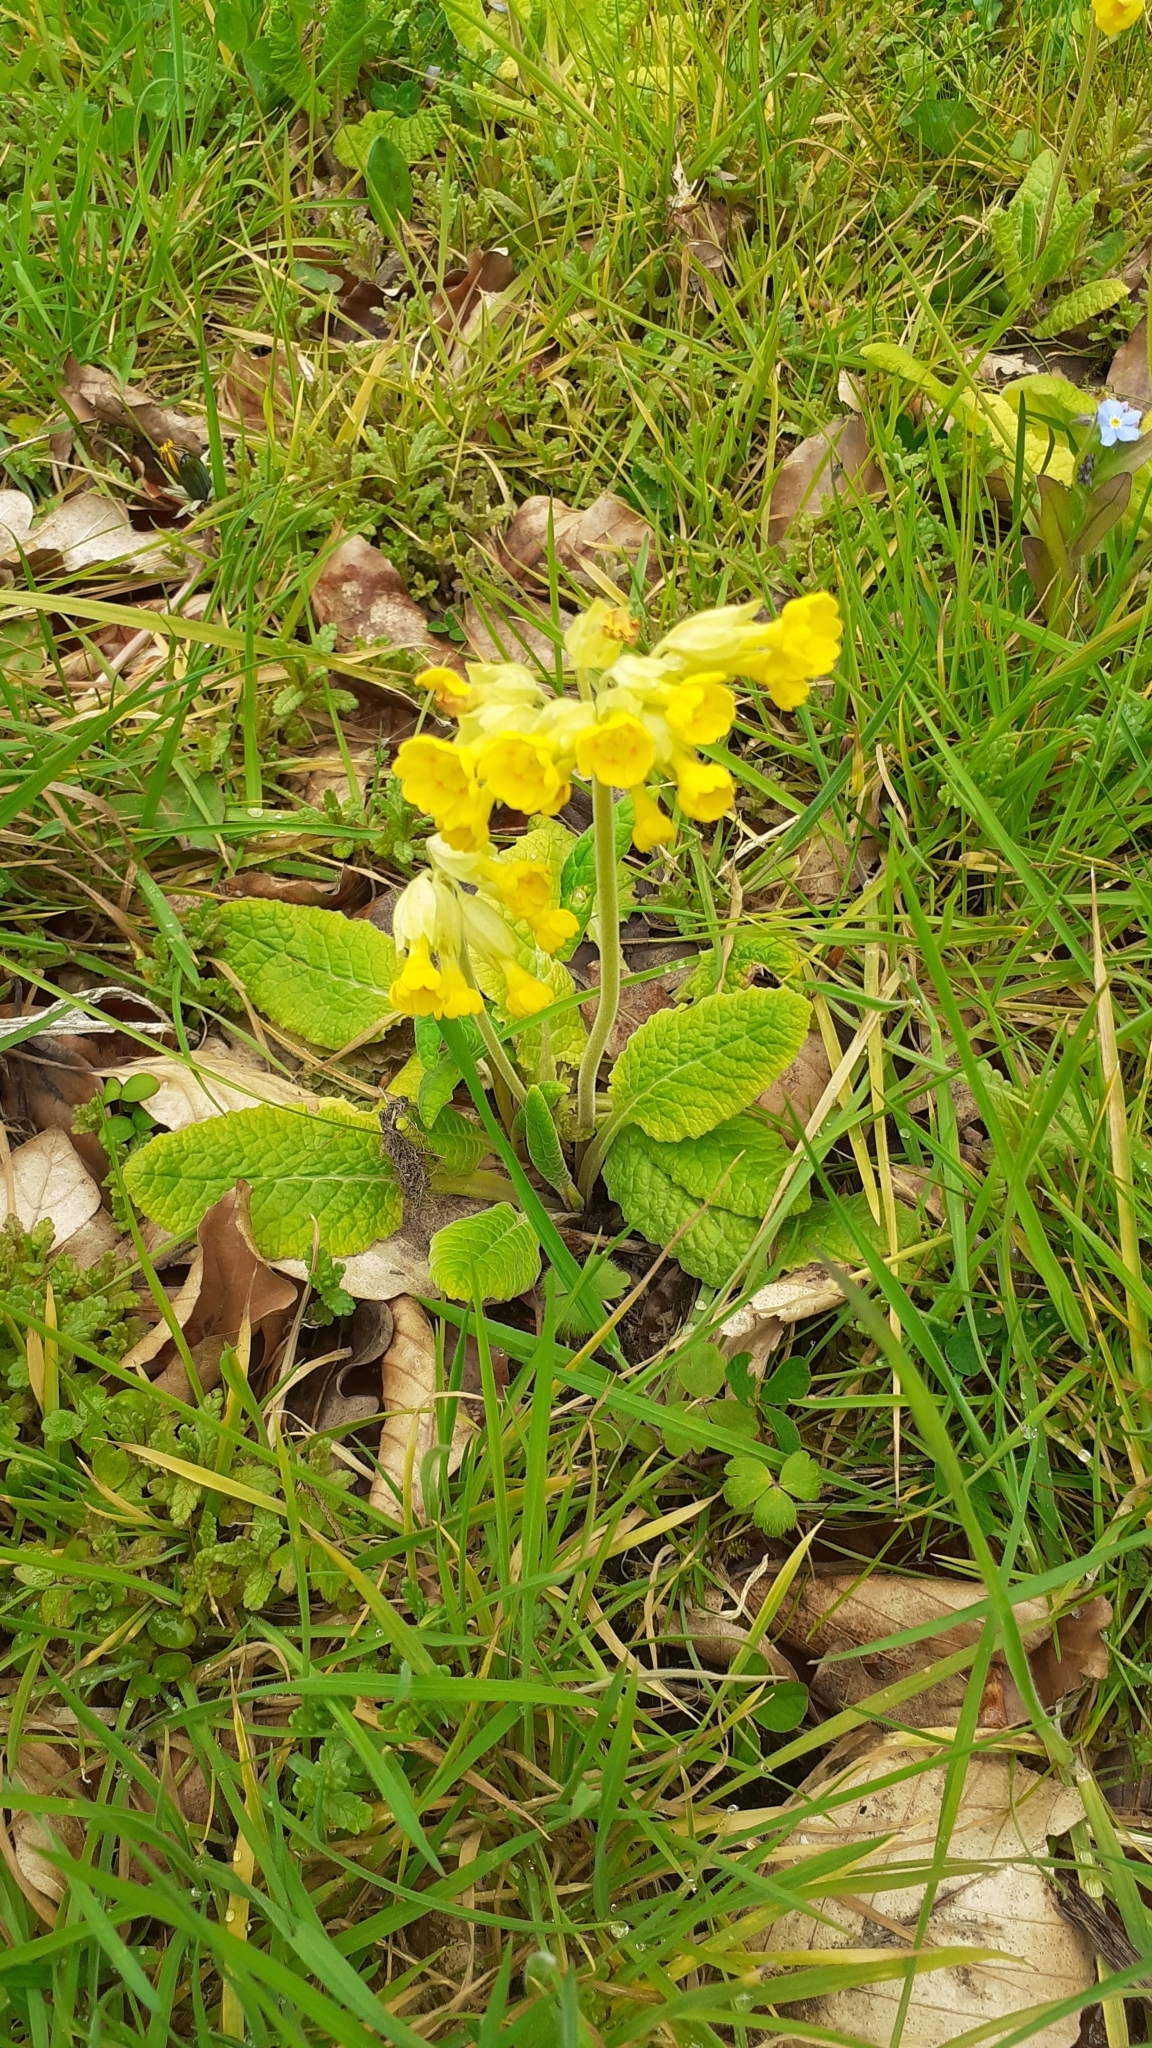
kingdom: Plantae
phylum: Tracheophyta
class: Magnoliopsida
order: Ericales
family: Primulaceae
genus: Primula
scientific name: Primula veris
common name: Cowslip
